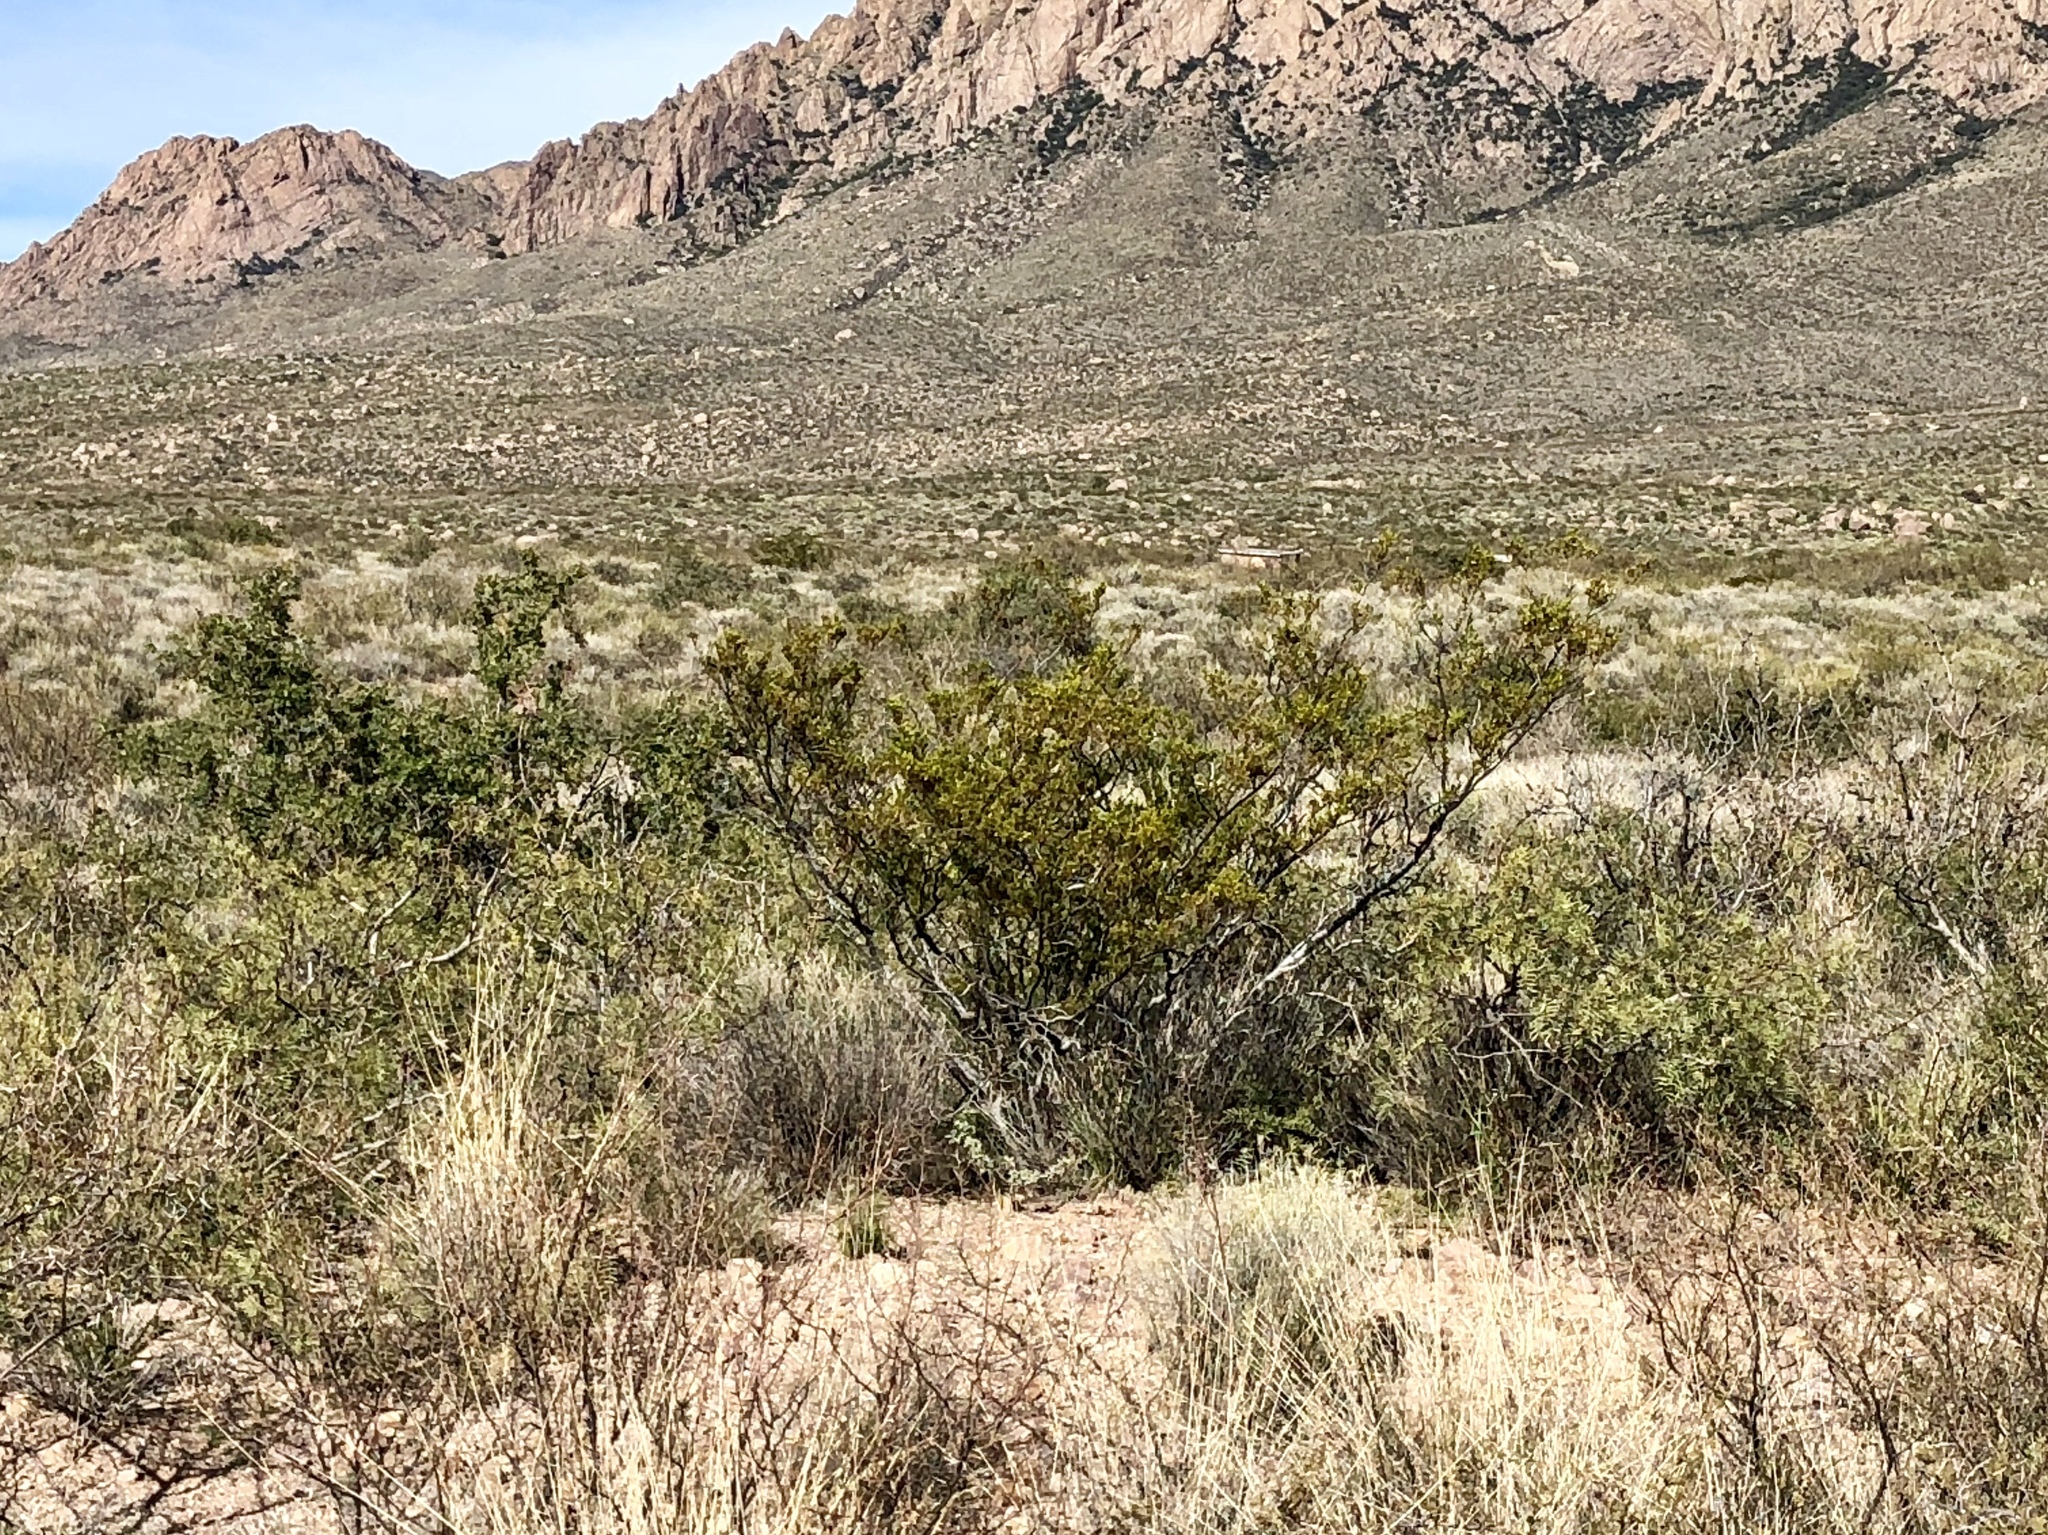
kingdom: Plantae
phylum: Tracheophyta
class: Magnoliopsida
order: Zygophyllales
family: Zygophyllaceae
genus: Larrea
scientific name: Larrea tridentata
